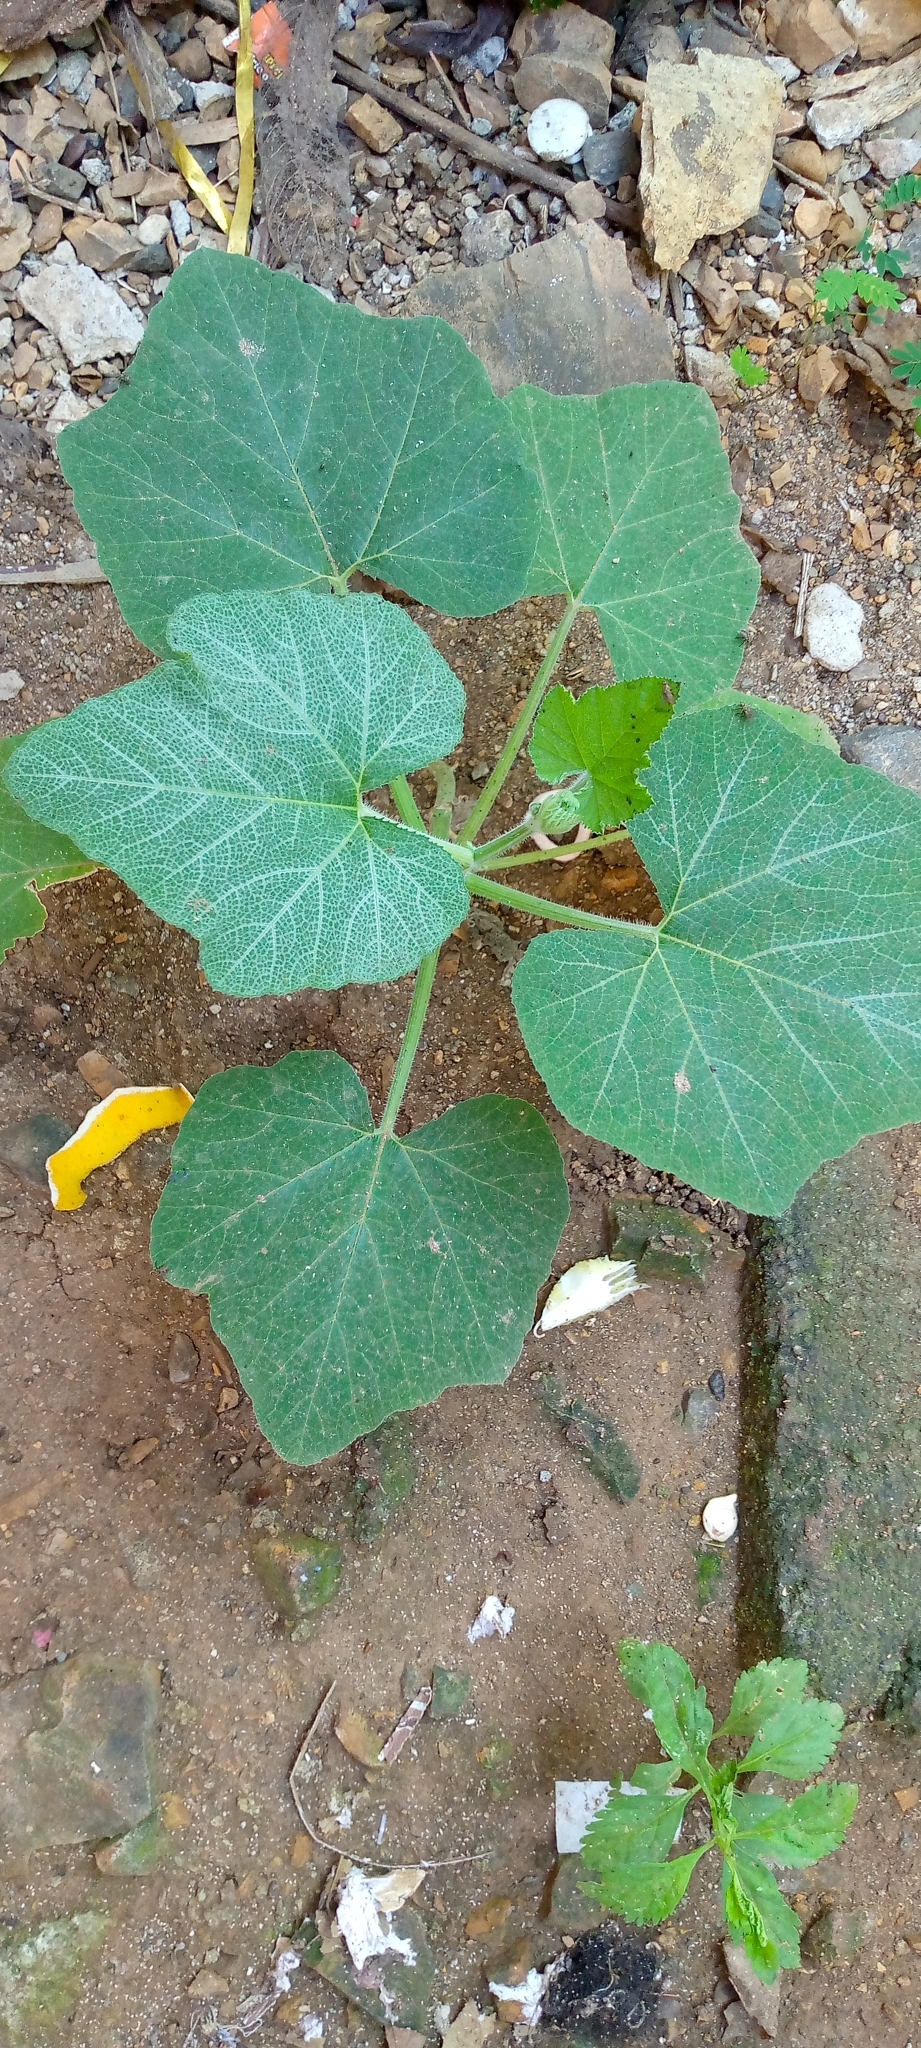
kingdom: Plantae
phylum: Tracheophyta
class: Magnoliopsida
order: Cucurbitales
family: Cucurbitaceae
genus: Cucurbita
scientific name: Cucurbita moschata
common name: Squash / pumpkin
